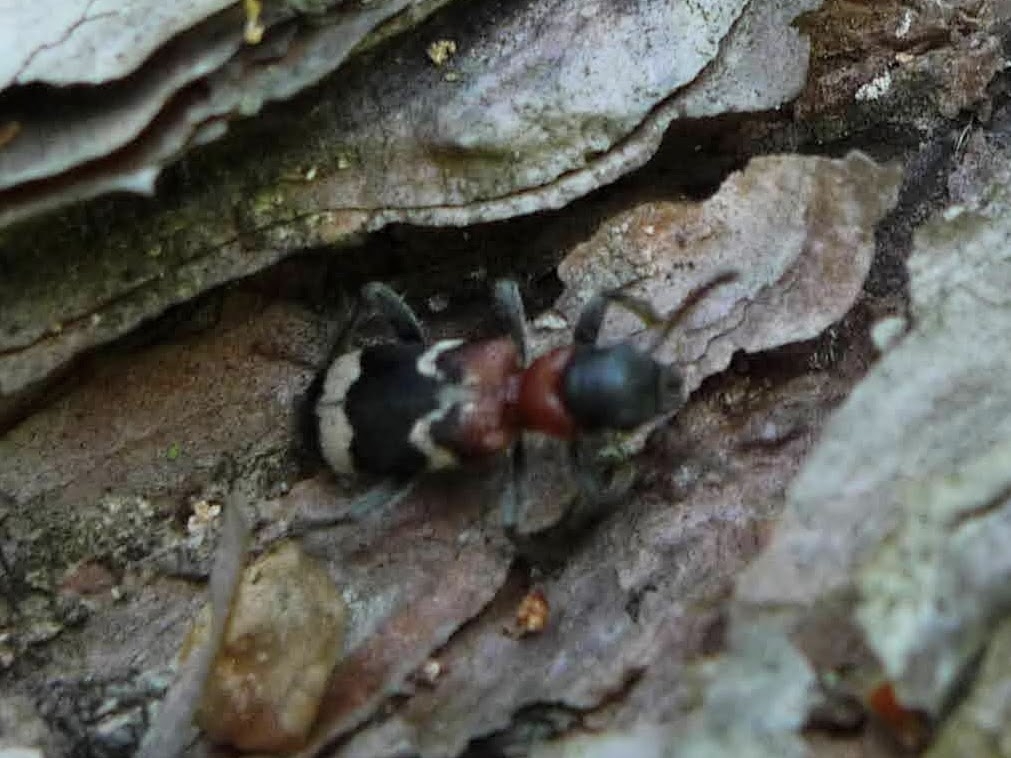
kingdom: Animalia
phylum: Arthropoda
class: Insecta
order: Coleoptera
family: Cleridae
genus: Thanasimus
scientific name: Thanasimus formicarius
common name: Ant beetle
